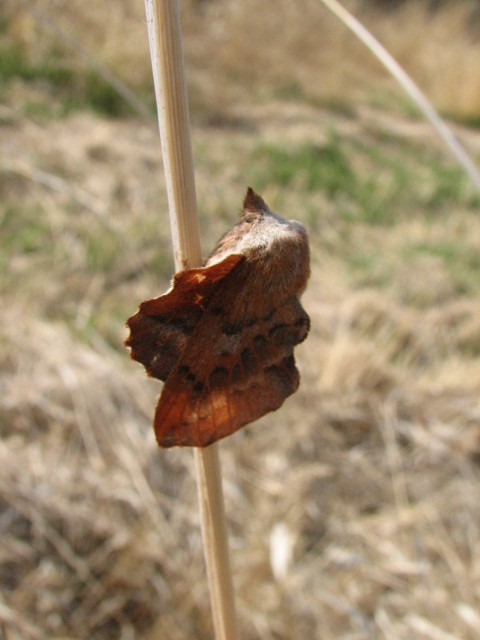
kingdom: Animalia
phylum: Arthropoda
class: Insecta
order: Lepidoptera
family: Lasiocampidae
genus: Phyllodesma
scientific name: Phyllodesma americana
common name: American lappet moth
